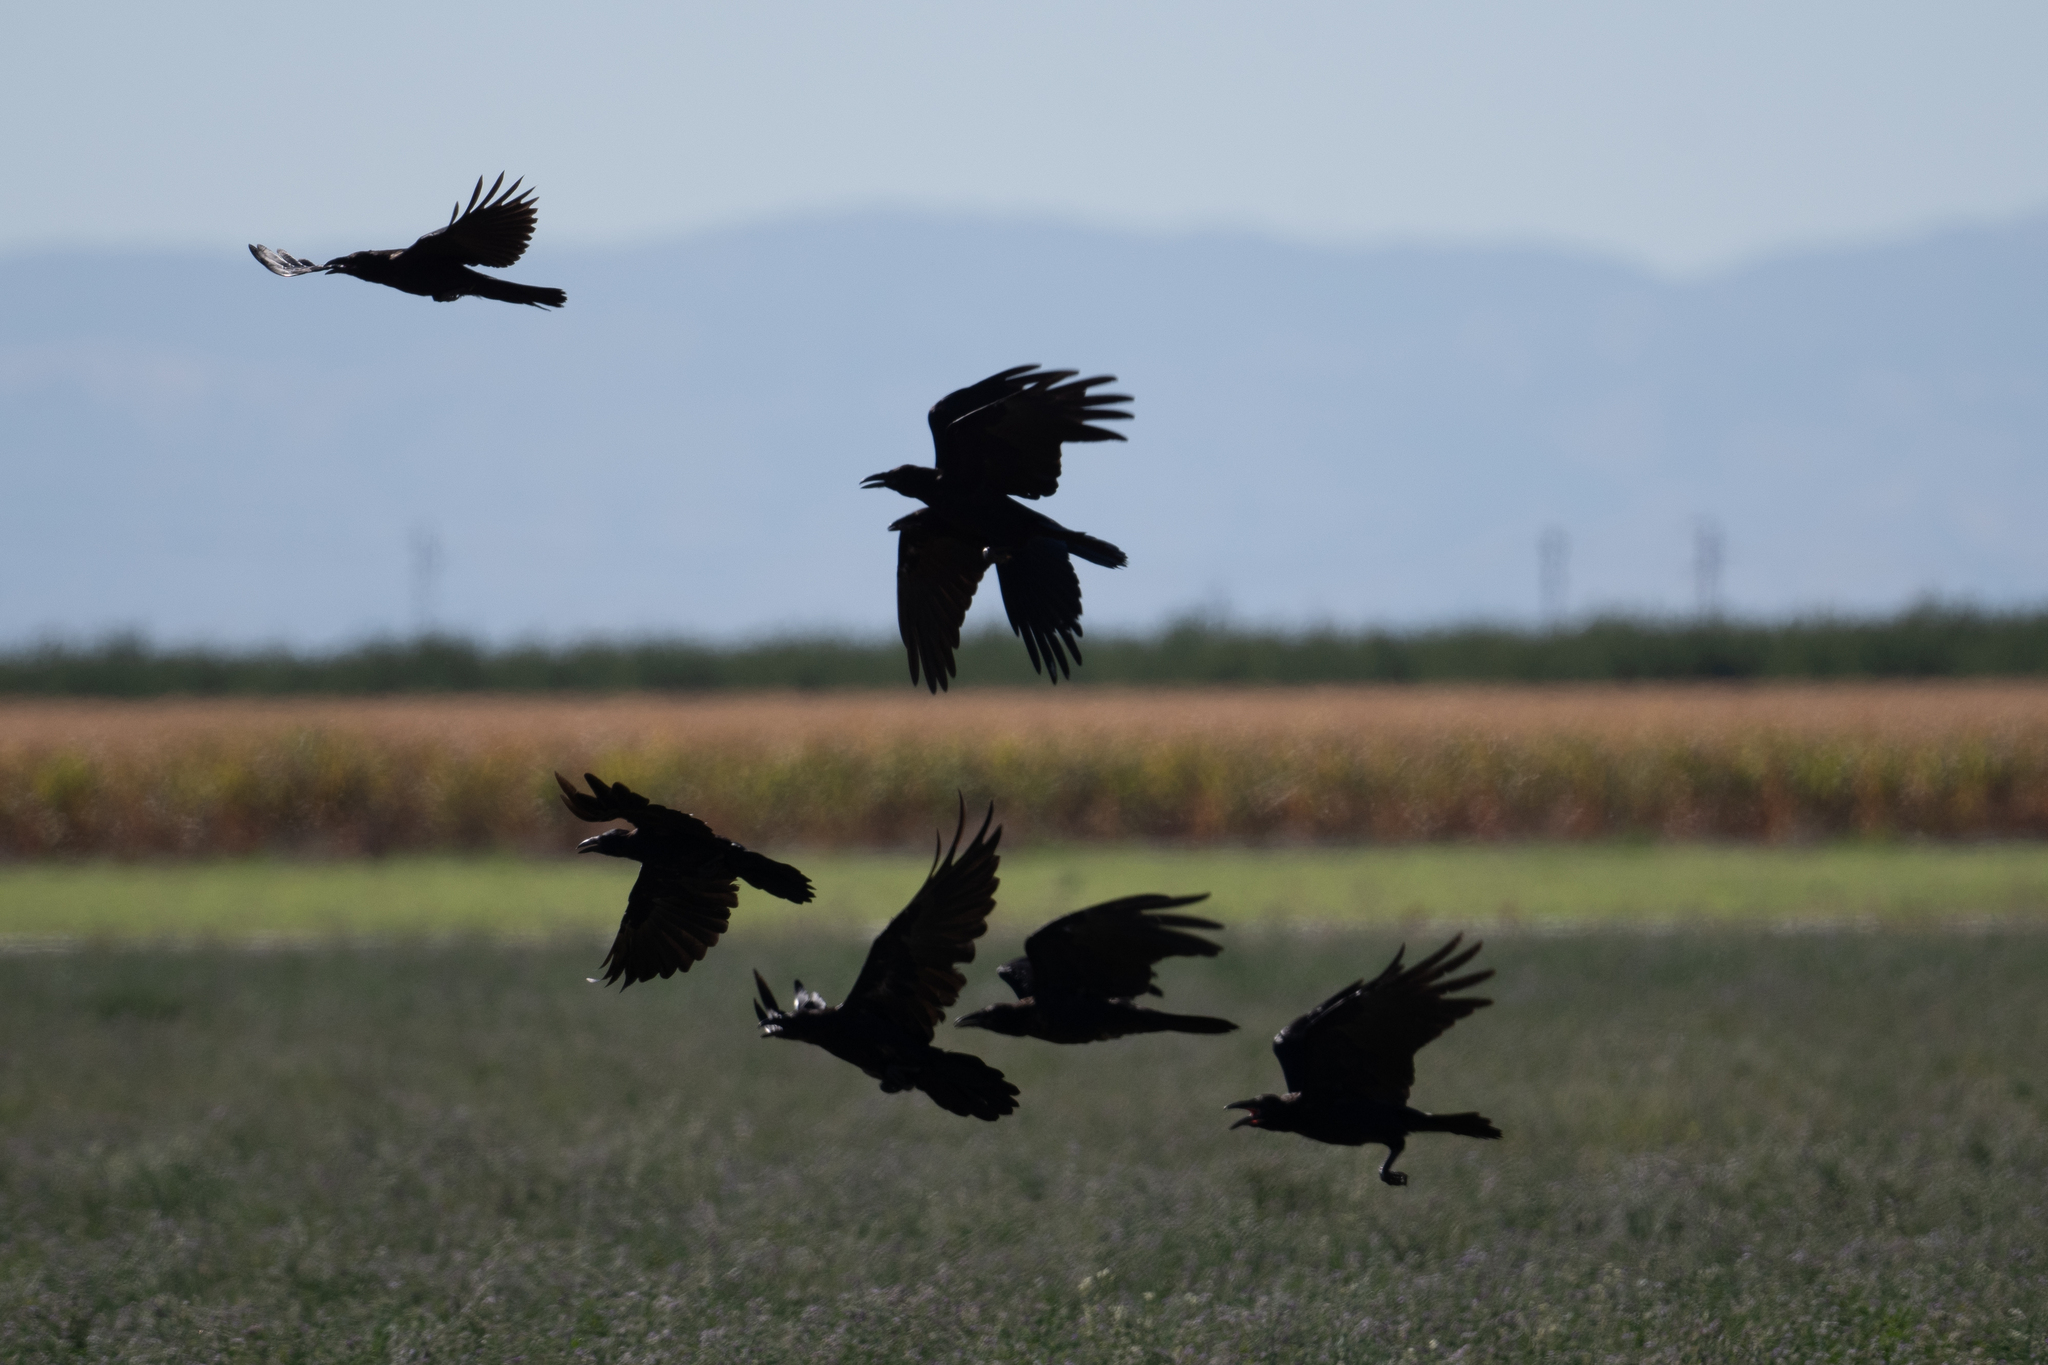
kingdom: Animalia
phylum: Chordata
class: Aves
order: Passeriformes
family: Corvidae
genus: Corvus
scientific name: Corvus corax
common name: Common raven
